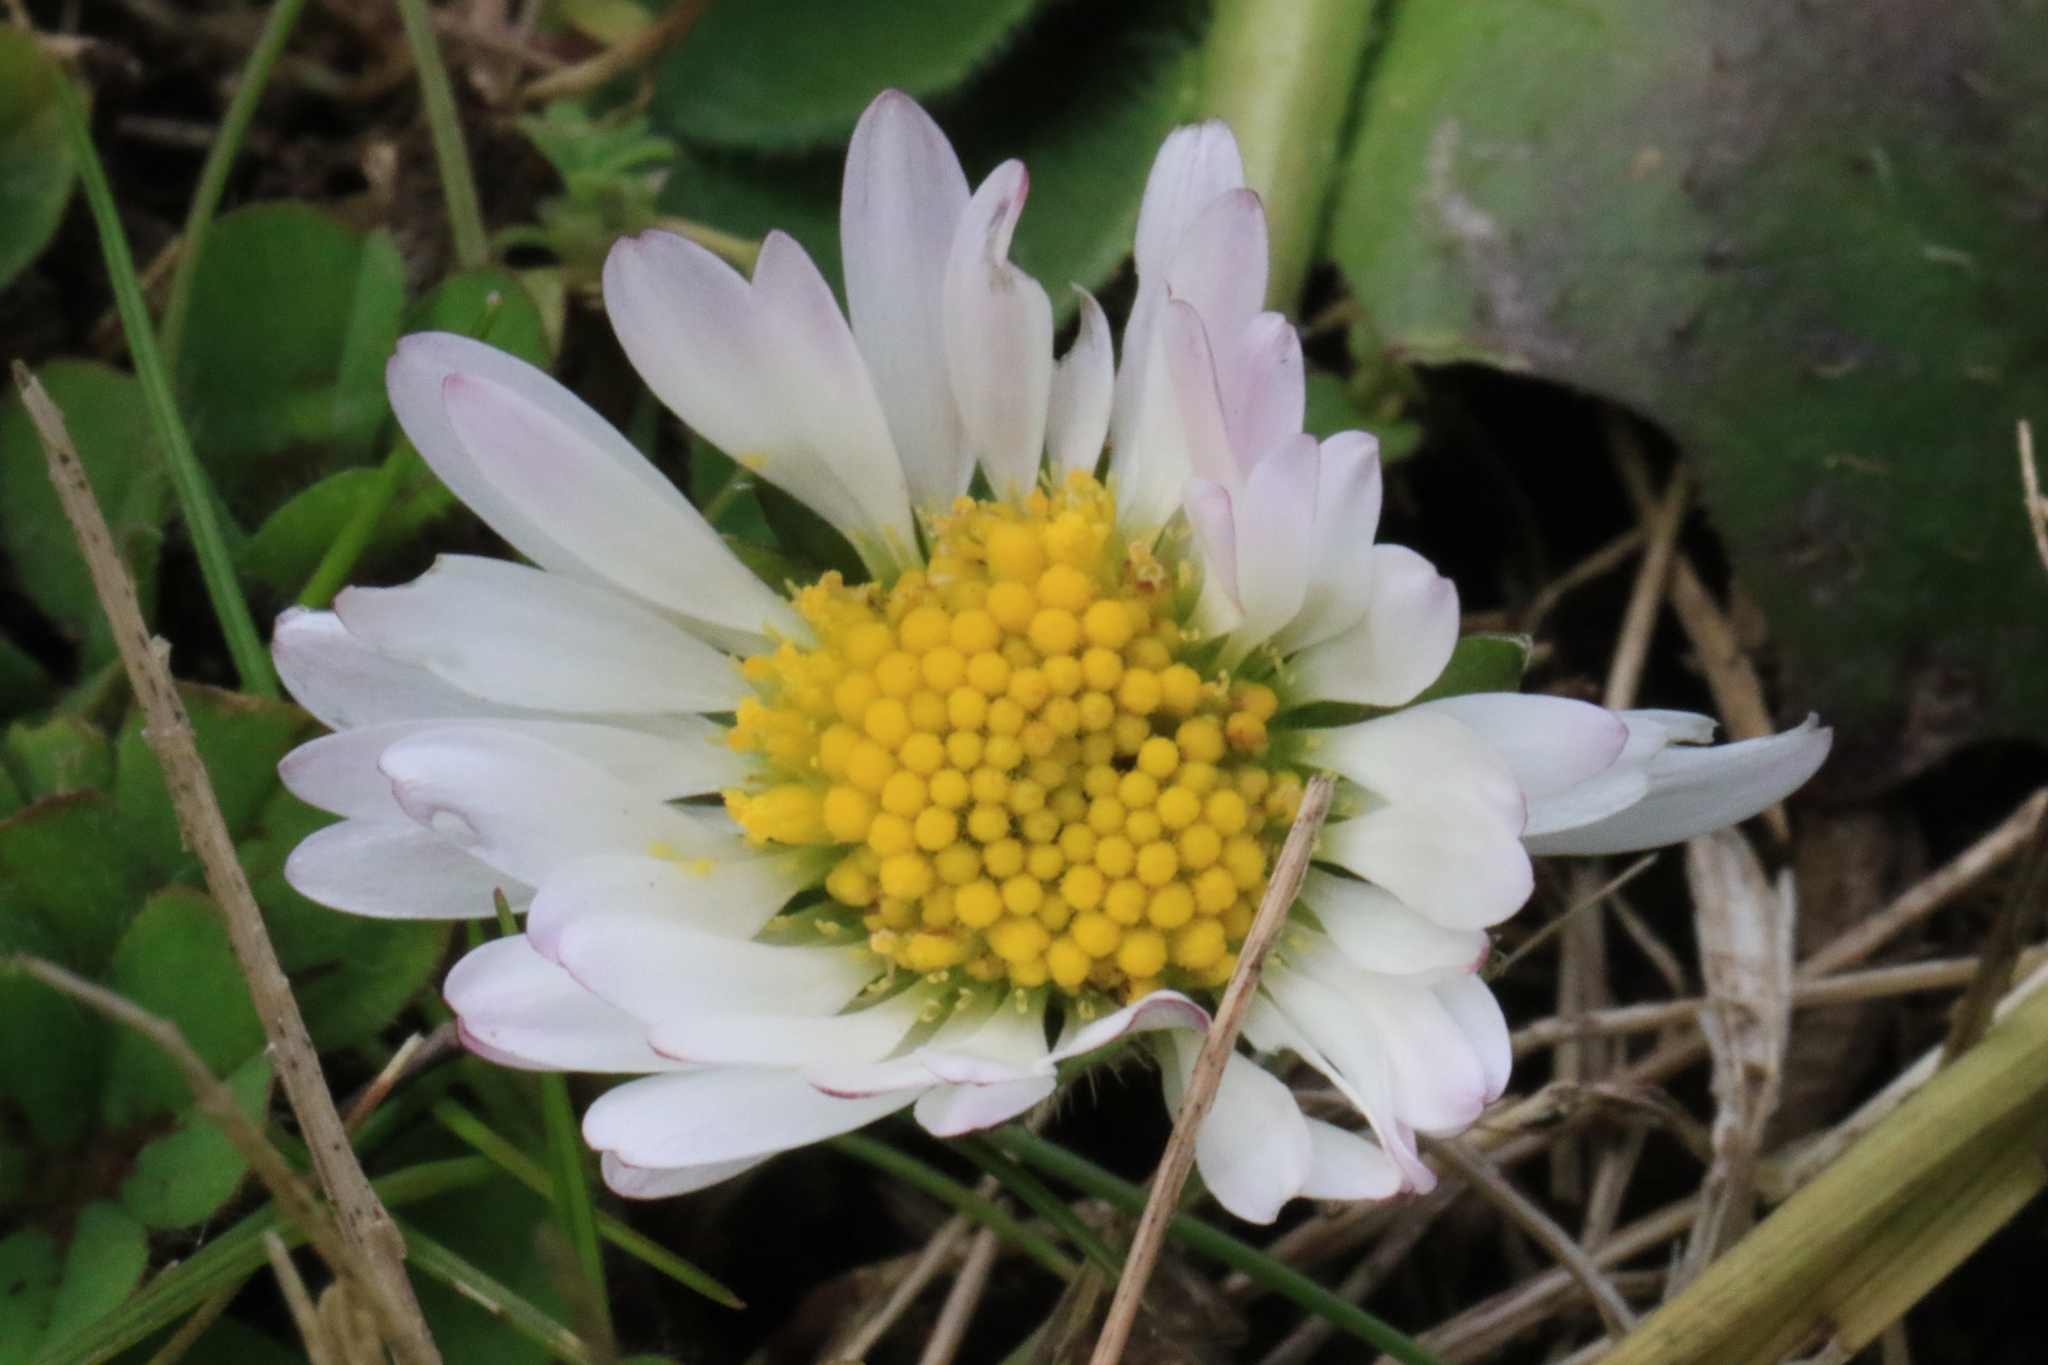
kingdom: Plantae
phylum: Tracheophyta
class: Magnoliopsida
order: Asterales
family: Asteraceae
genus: Bellis
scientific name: Bellis perennis
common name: Lawndaisy
